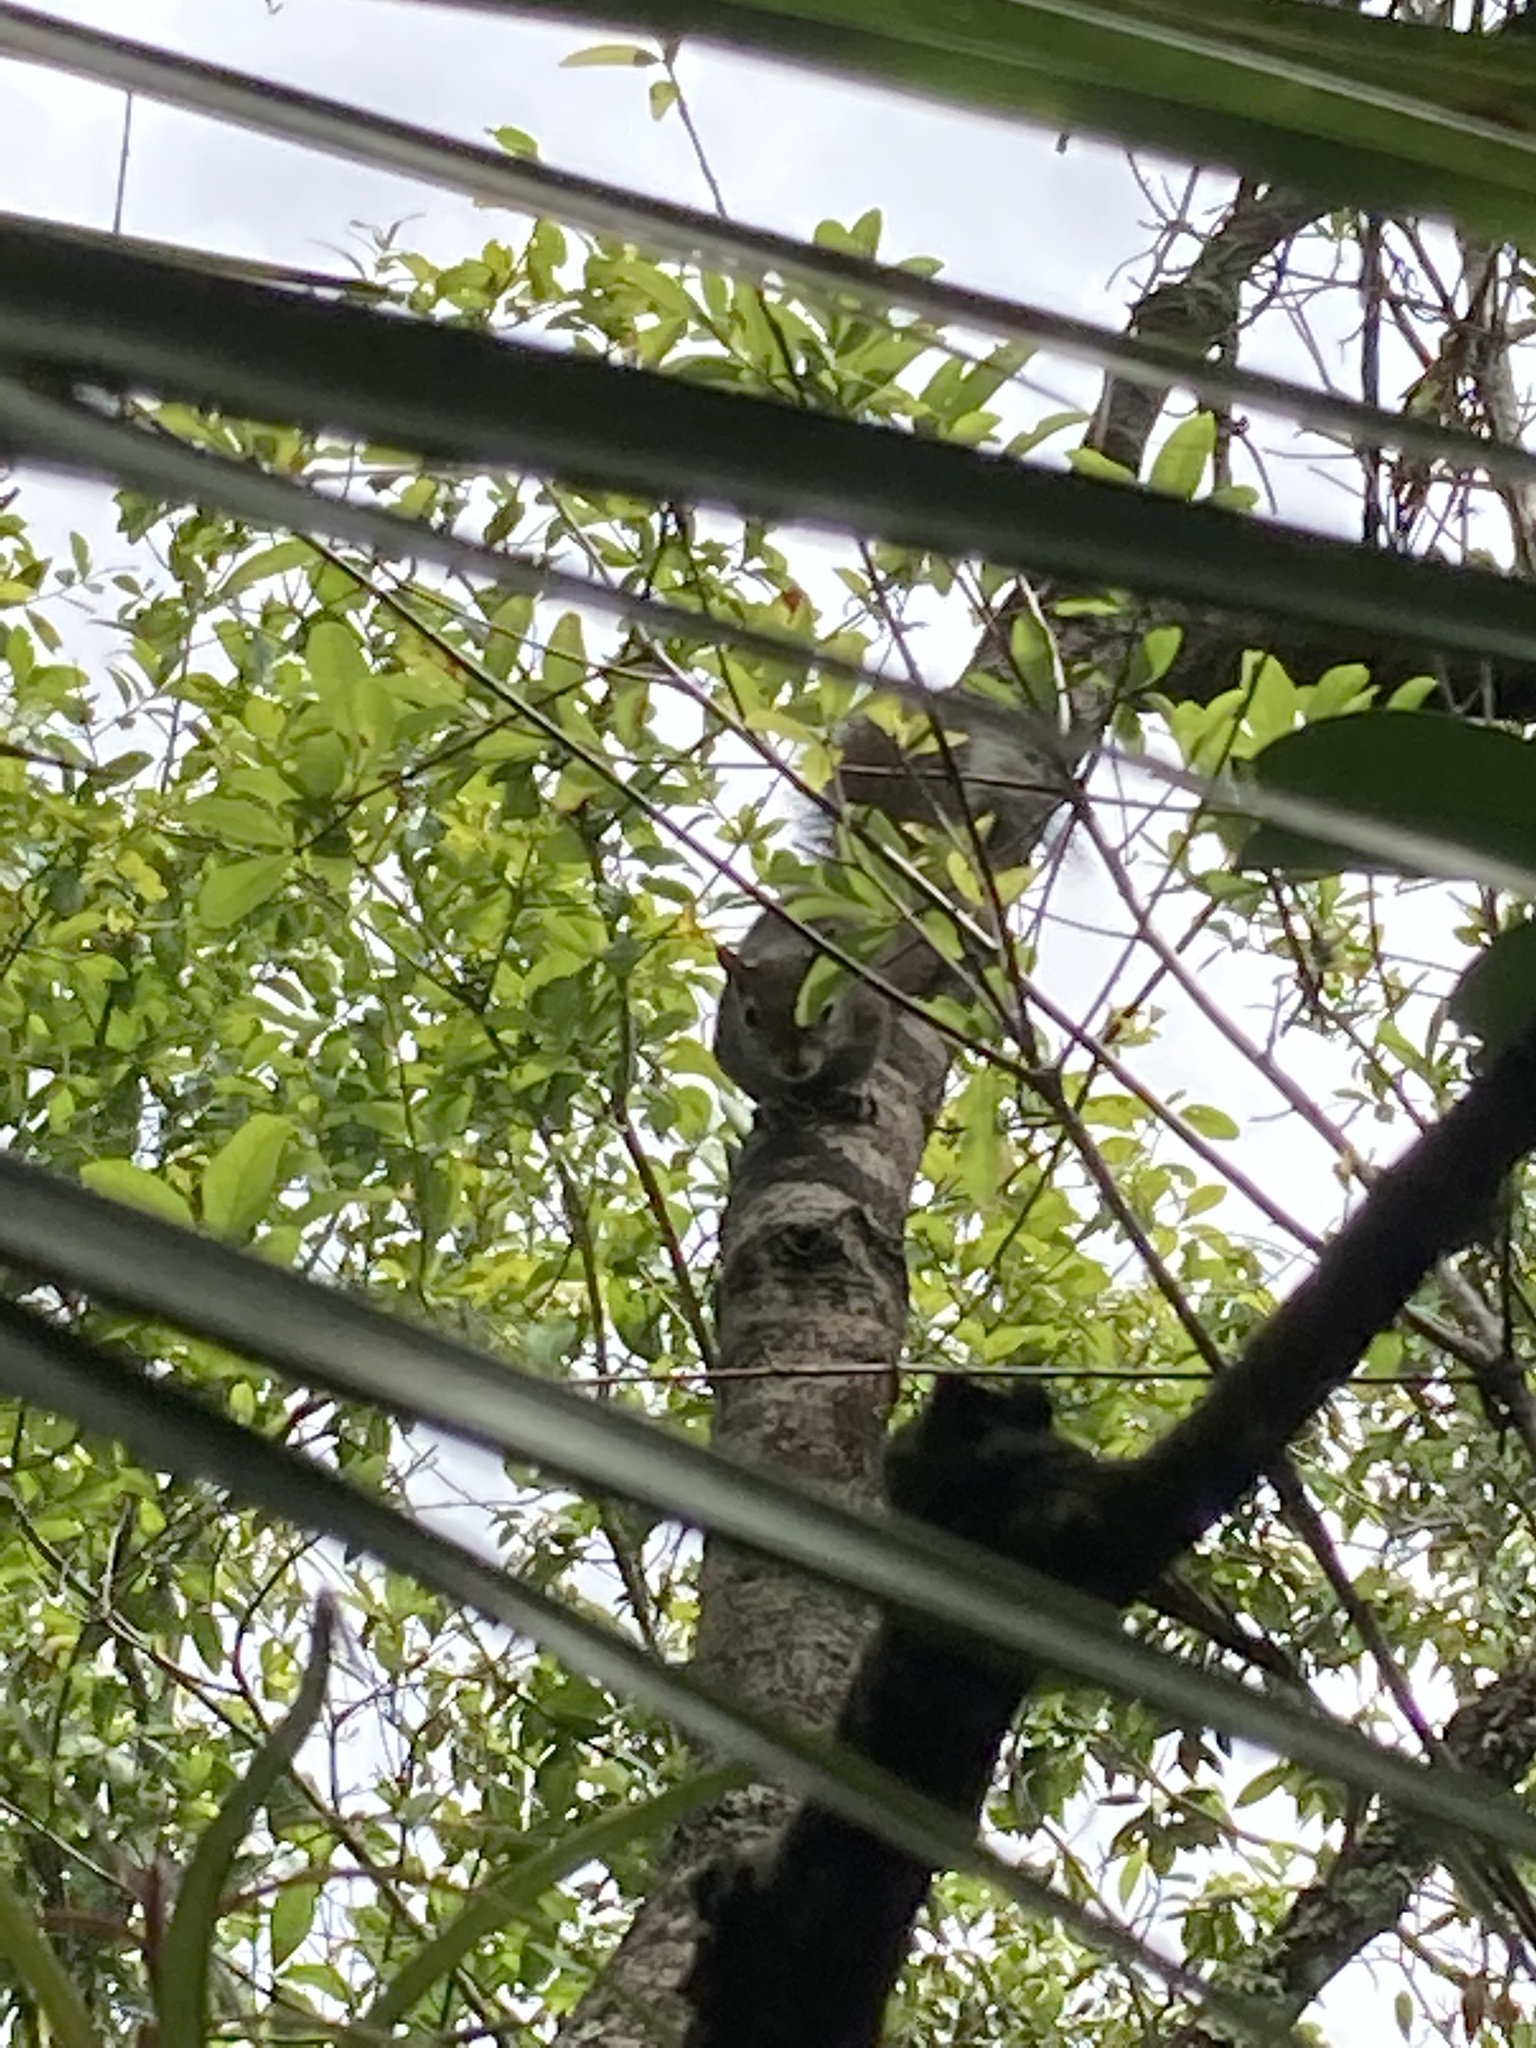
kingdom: Animalia
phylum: Chordata
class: Mammalia
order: Rodentia
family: Sciuridae
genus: Sciurus
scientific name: Sciurus carolinensis
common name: Eastern gray squirrel
